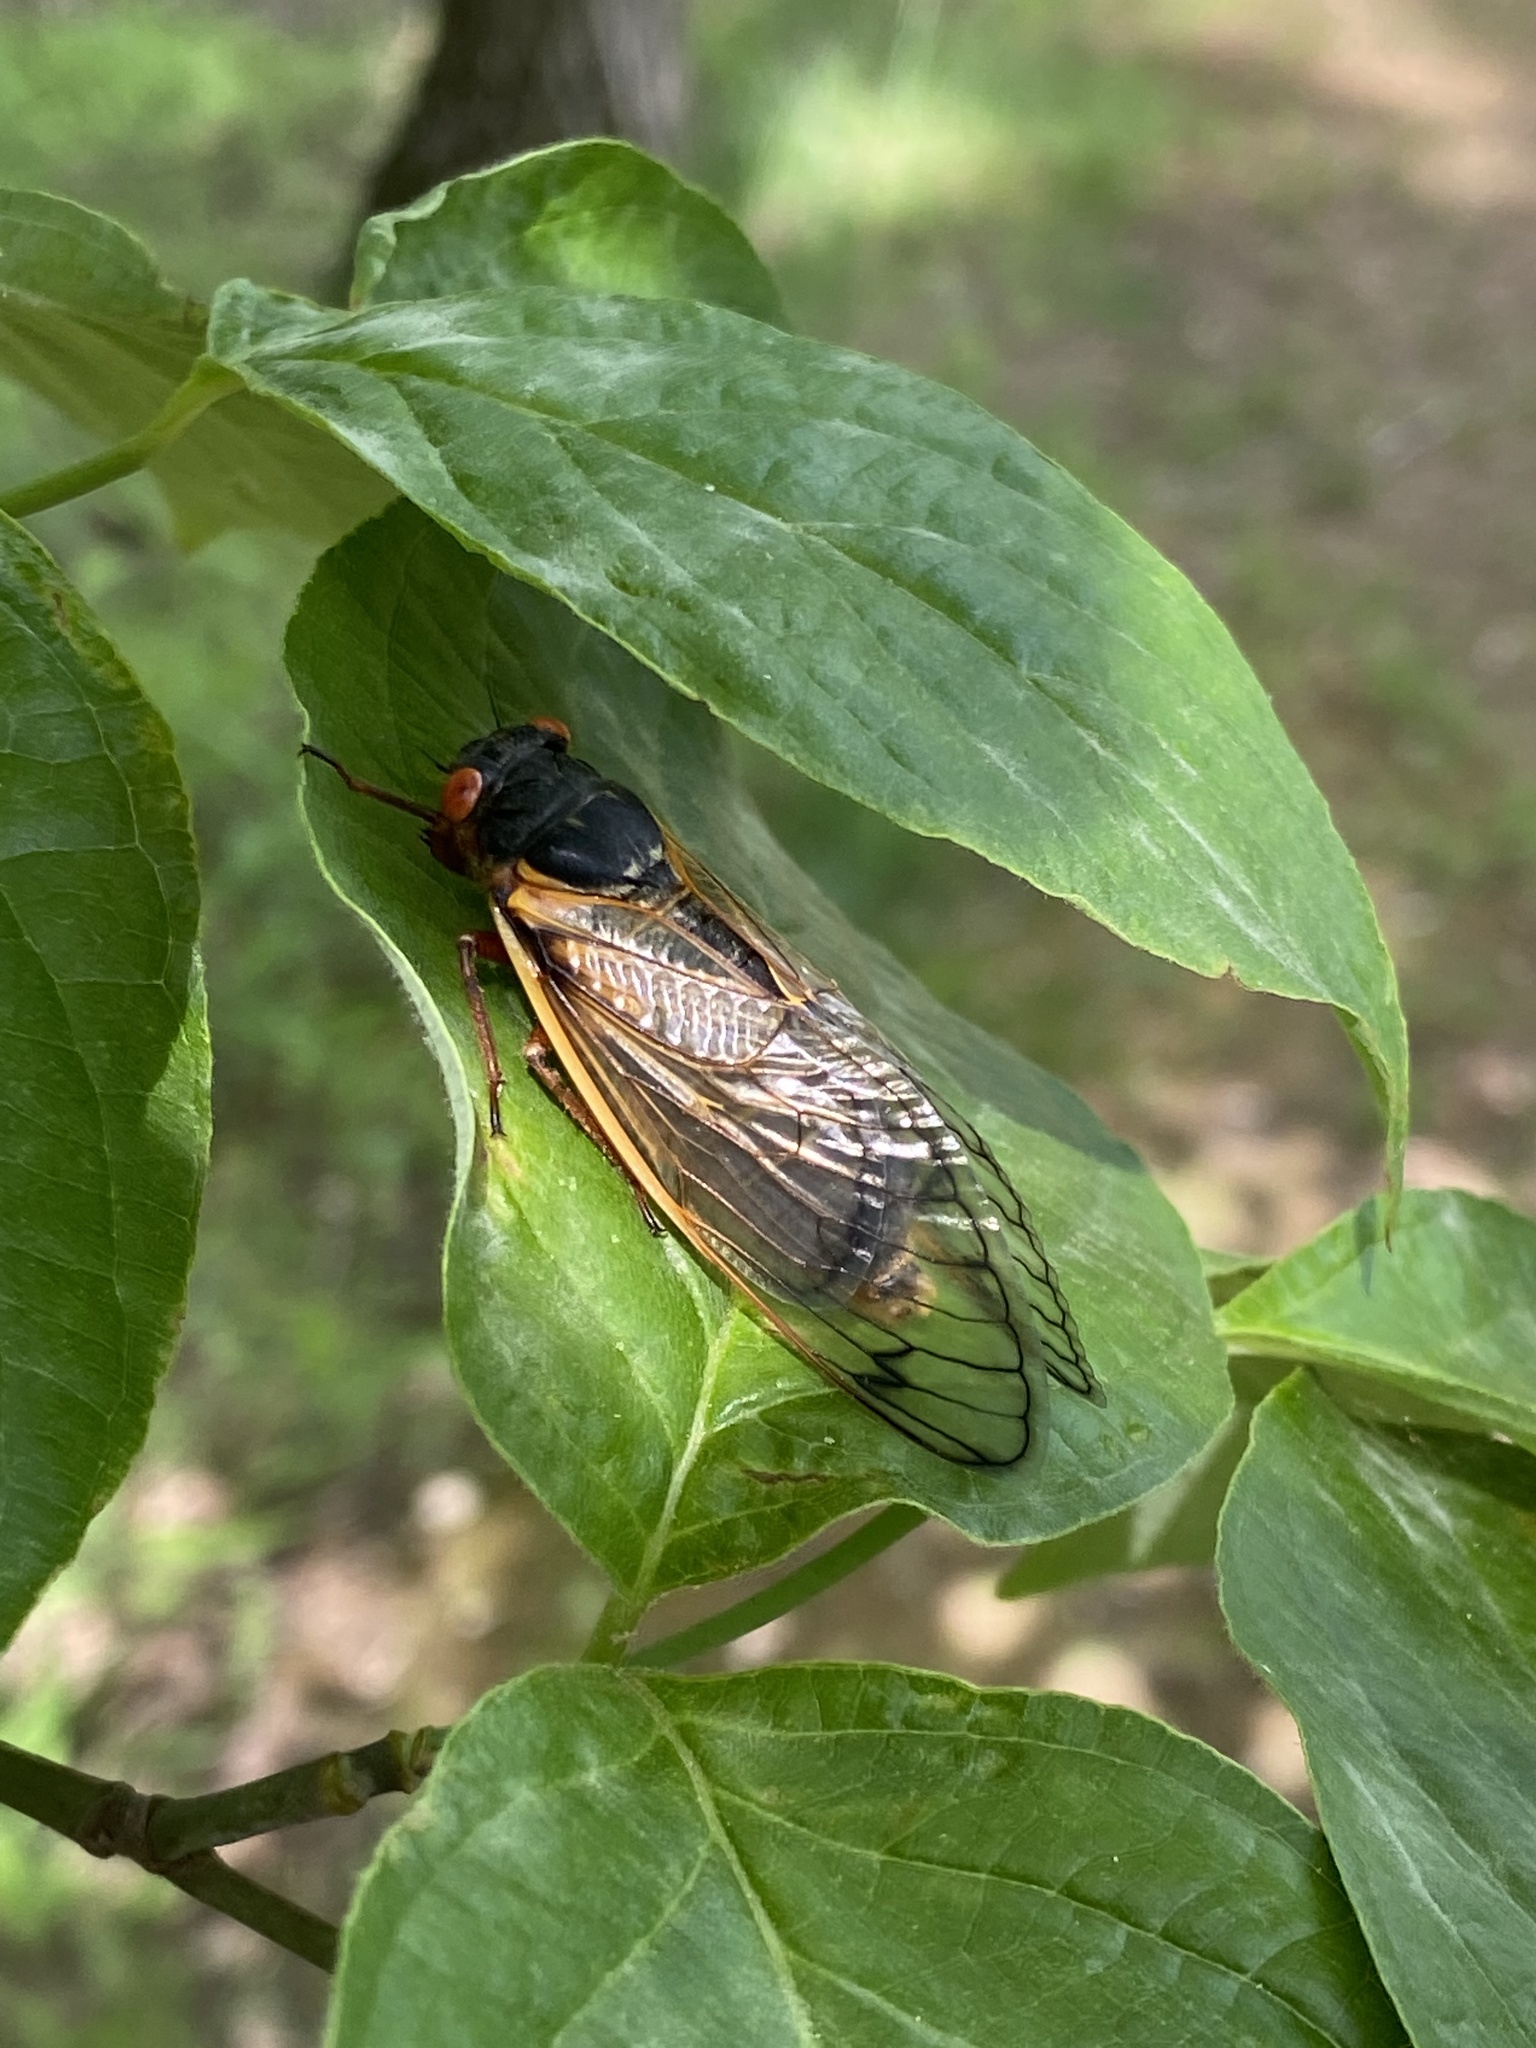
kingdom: Animalia
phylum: Arthropoda
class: Insecta
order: Hemiptera
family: Cicadidae
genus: Magicicada
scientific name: Magicicada septendecim
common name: Periodical cicada
